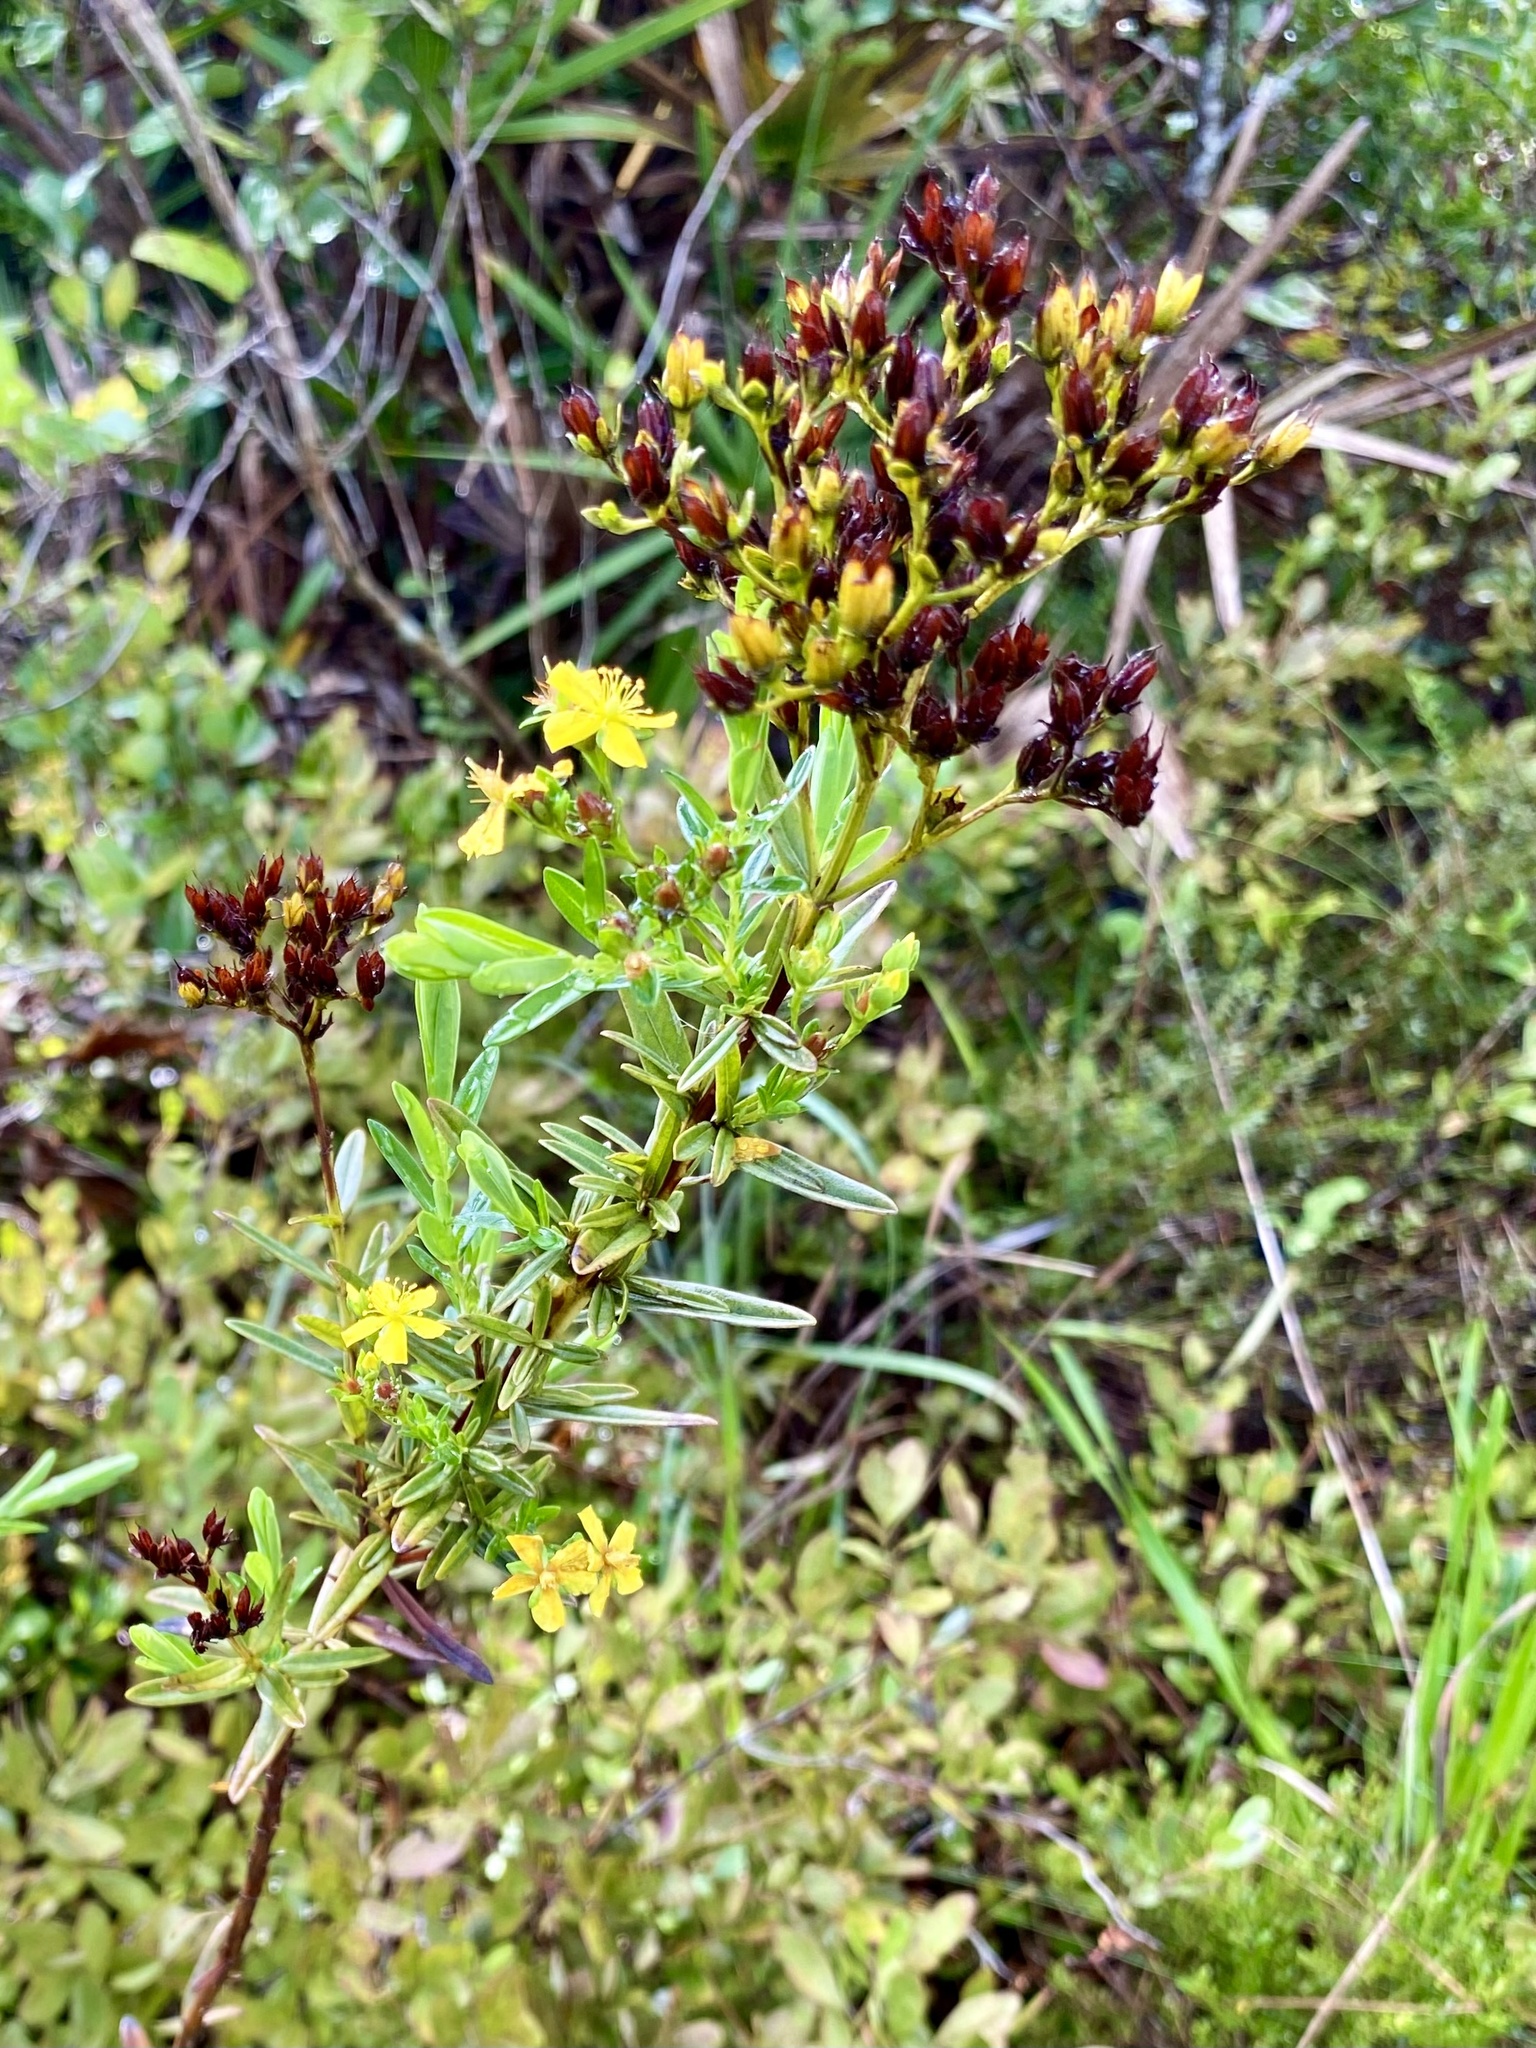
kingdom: Plantae
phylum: Tracheophyta
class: Magnoliopsida
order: Malpighiales
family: Hypericaceae
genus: Hypericum
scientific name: Hypericum cistifolium
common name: Round-pod st. john's-wort
